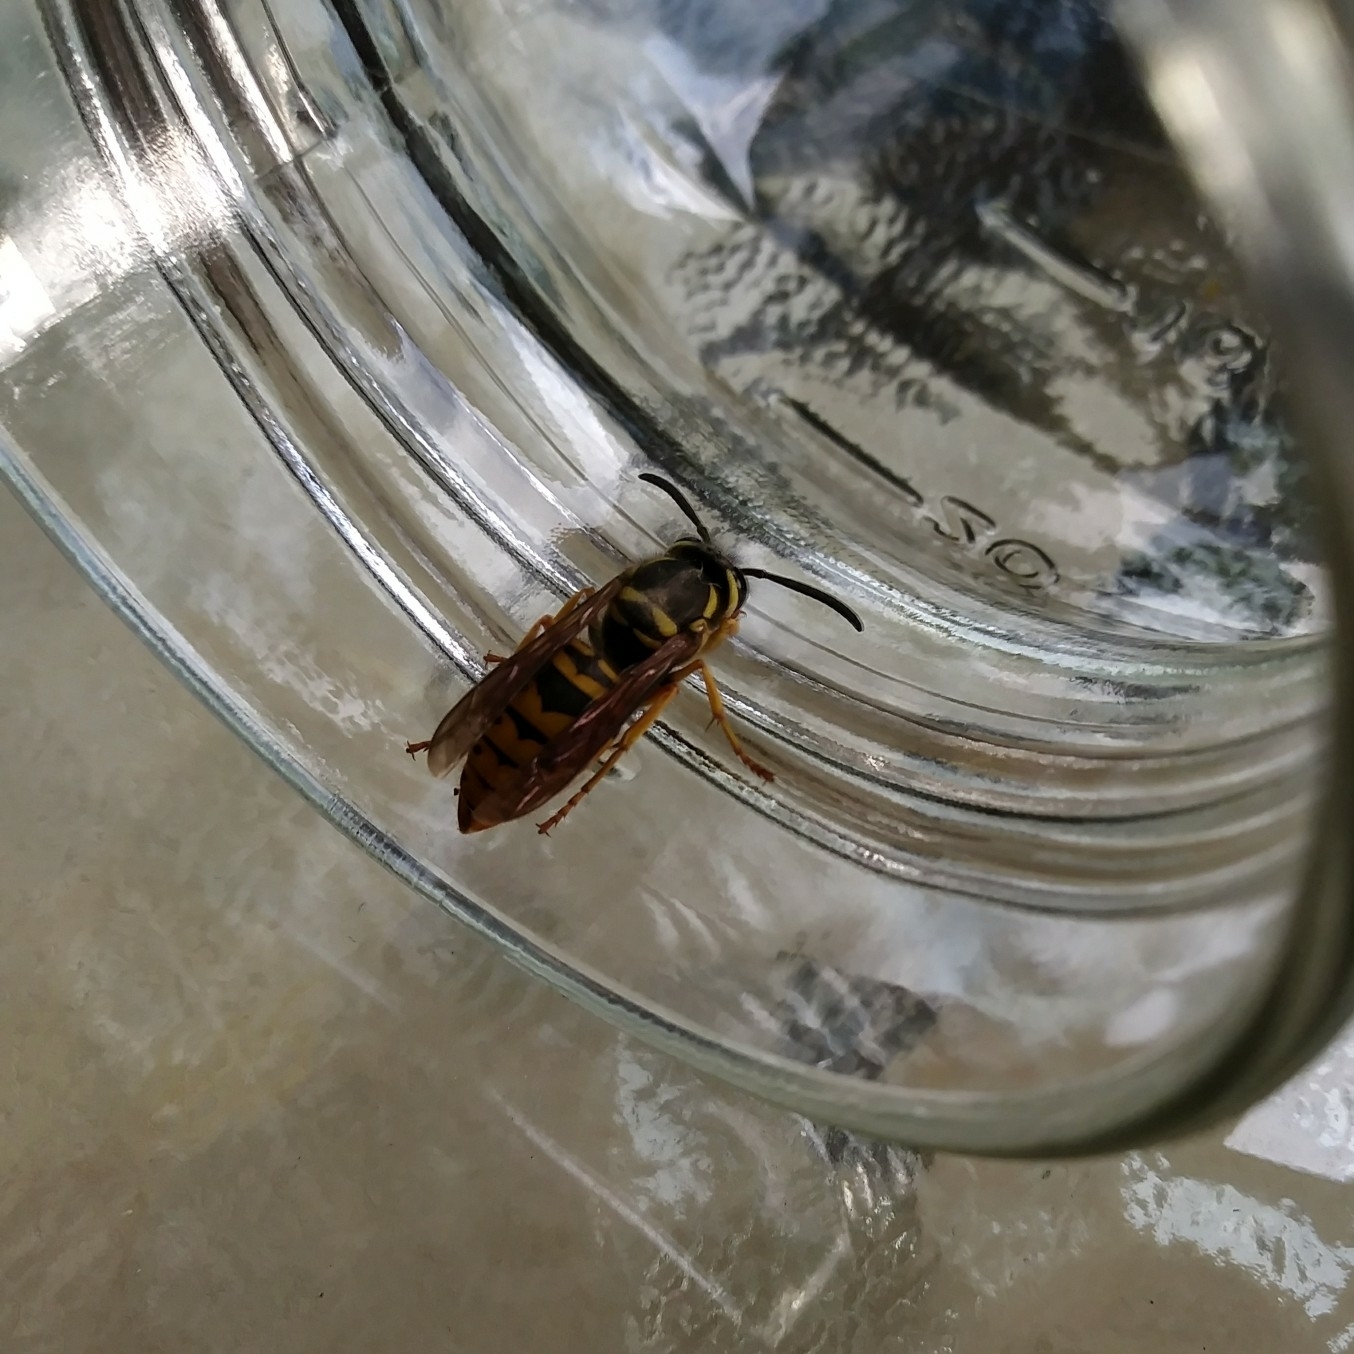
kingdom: Animalia
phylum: Arthropoda
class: Insecta
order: Hymenoptera
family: Vespidae
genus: Vespula
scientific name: Vespula maculifrons
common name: Eastern yellowjacket
